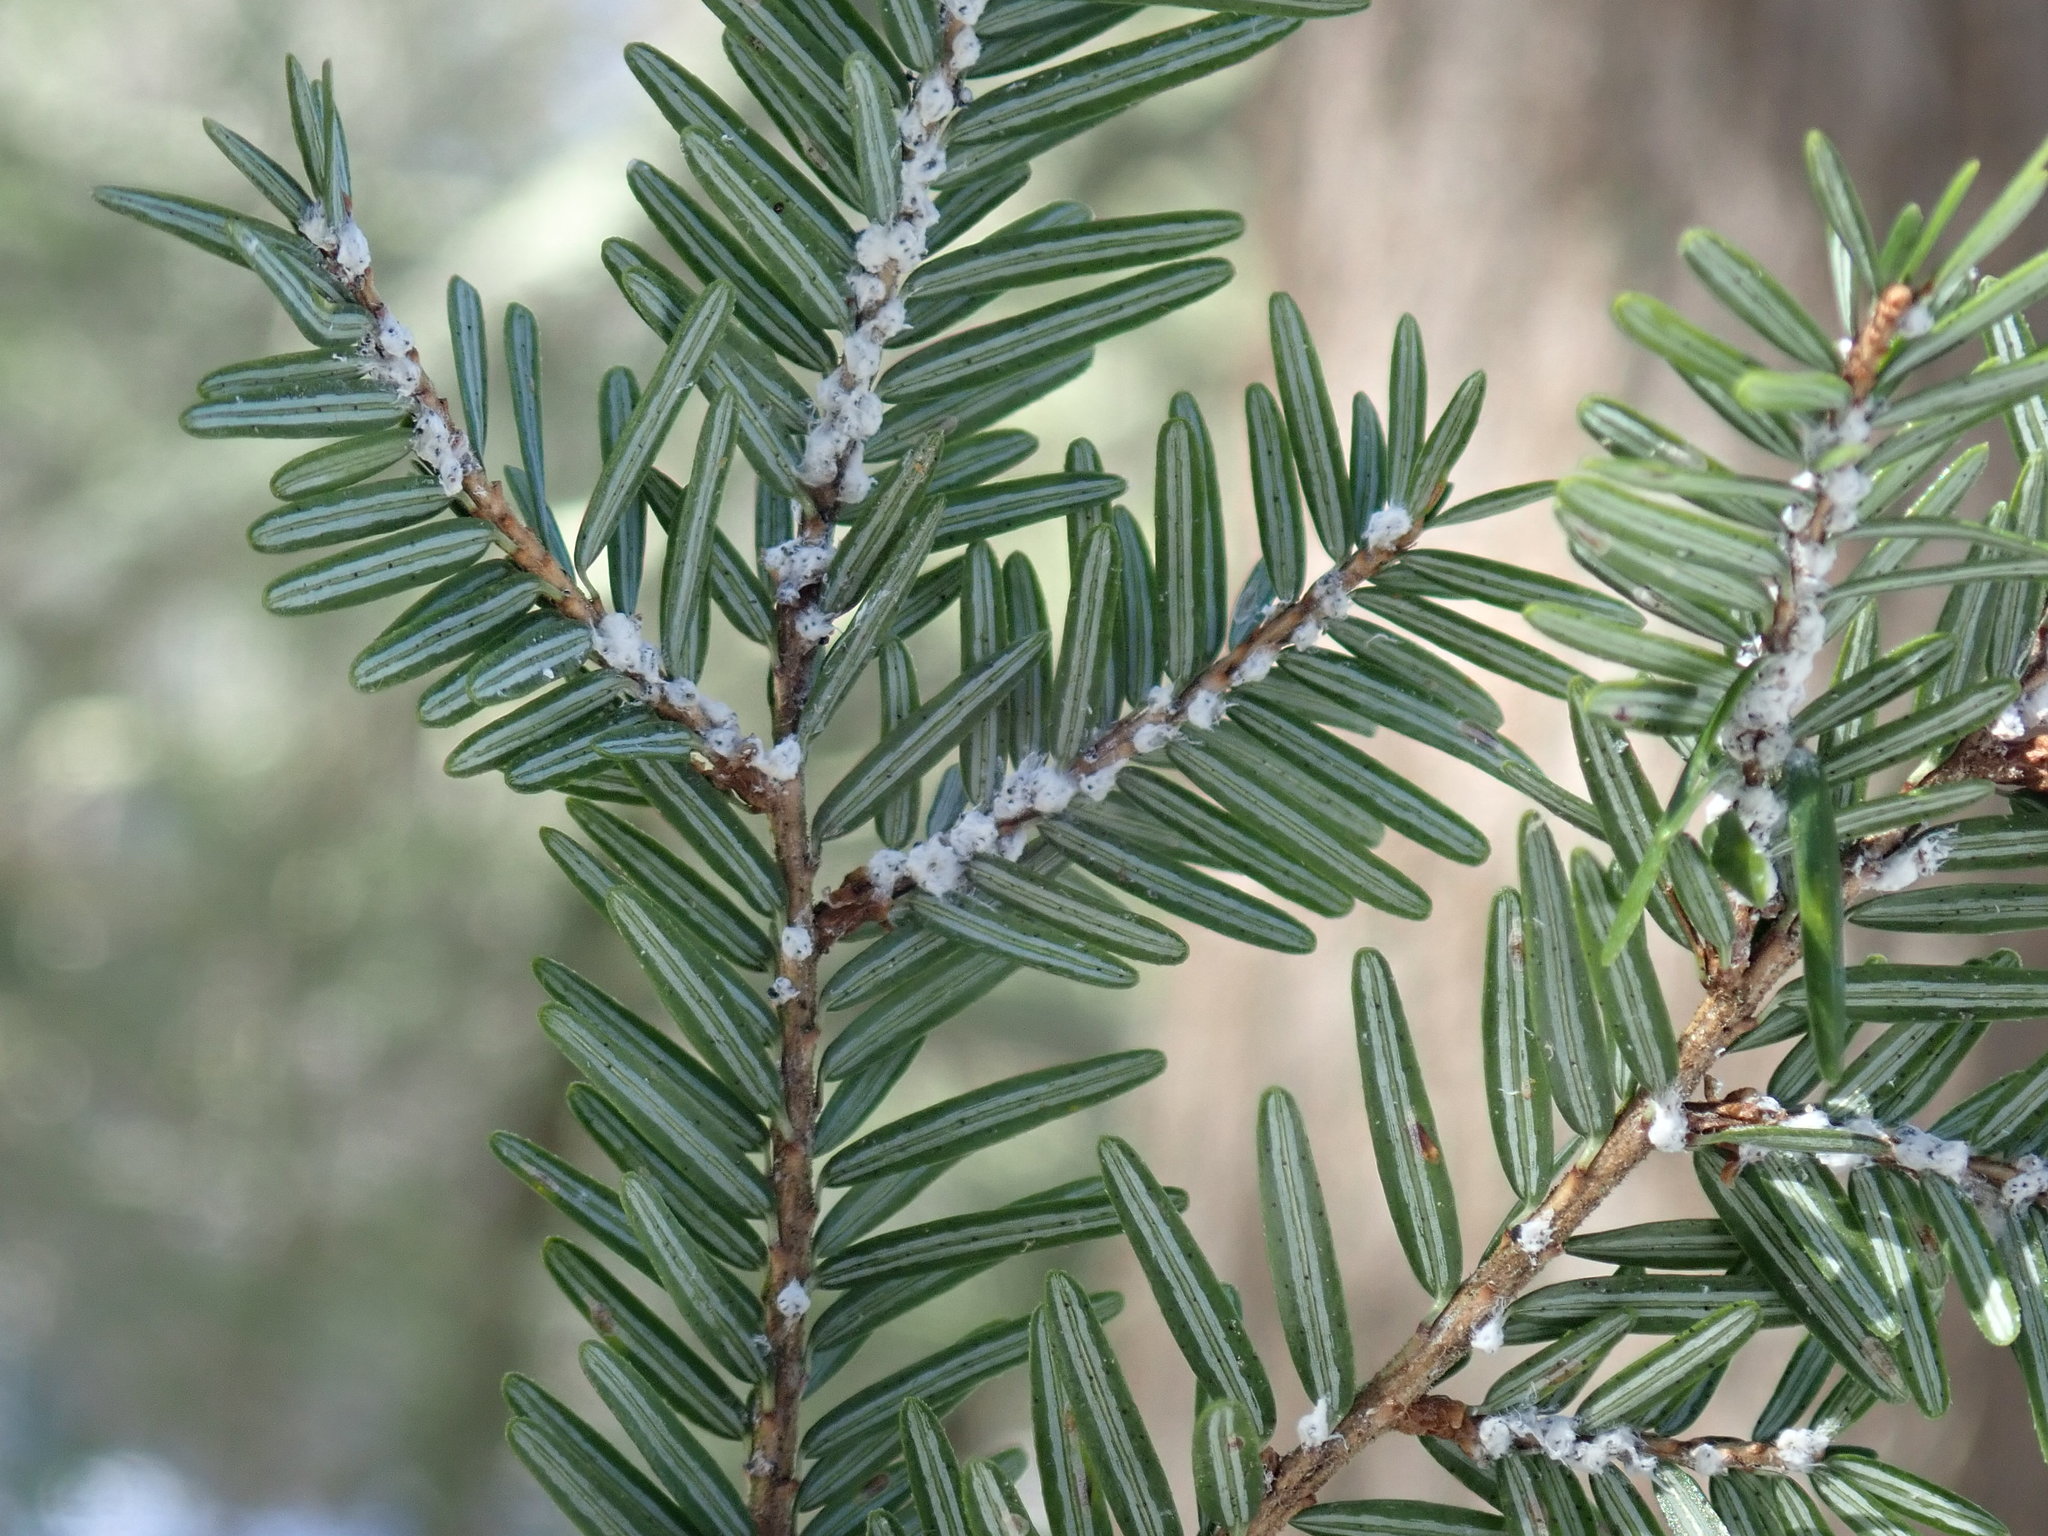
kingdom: Plantae
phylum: Tracheophyta
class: Pinopsida
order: Pinales
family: Pinaceae
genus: Tsuga
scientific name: Tsuga canadensis
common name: Eastern hemlock
